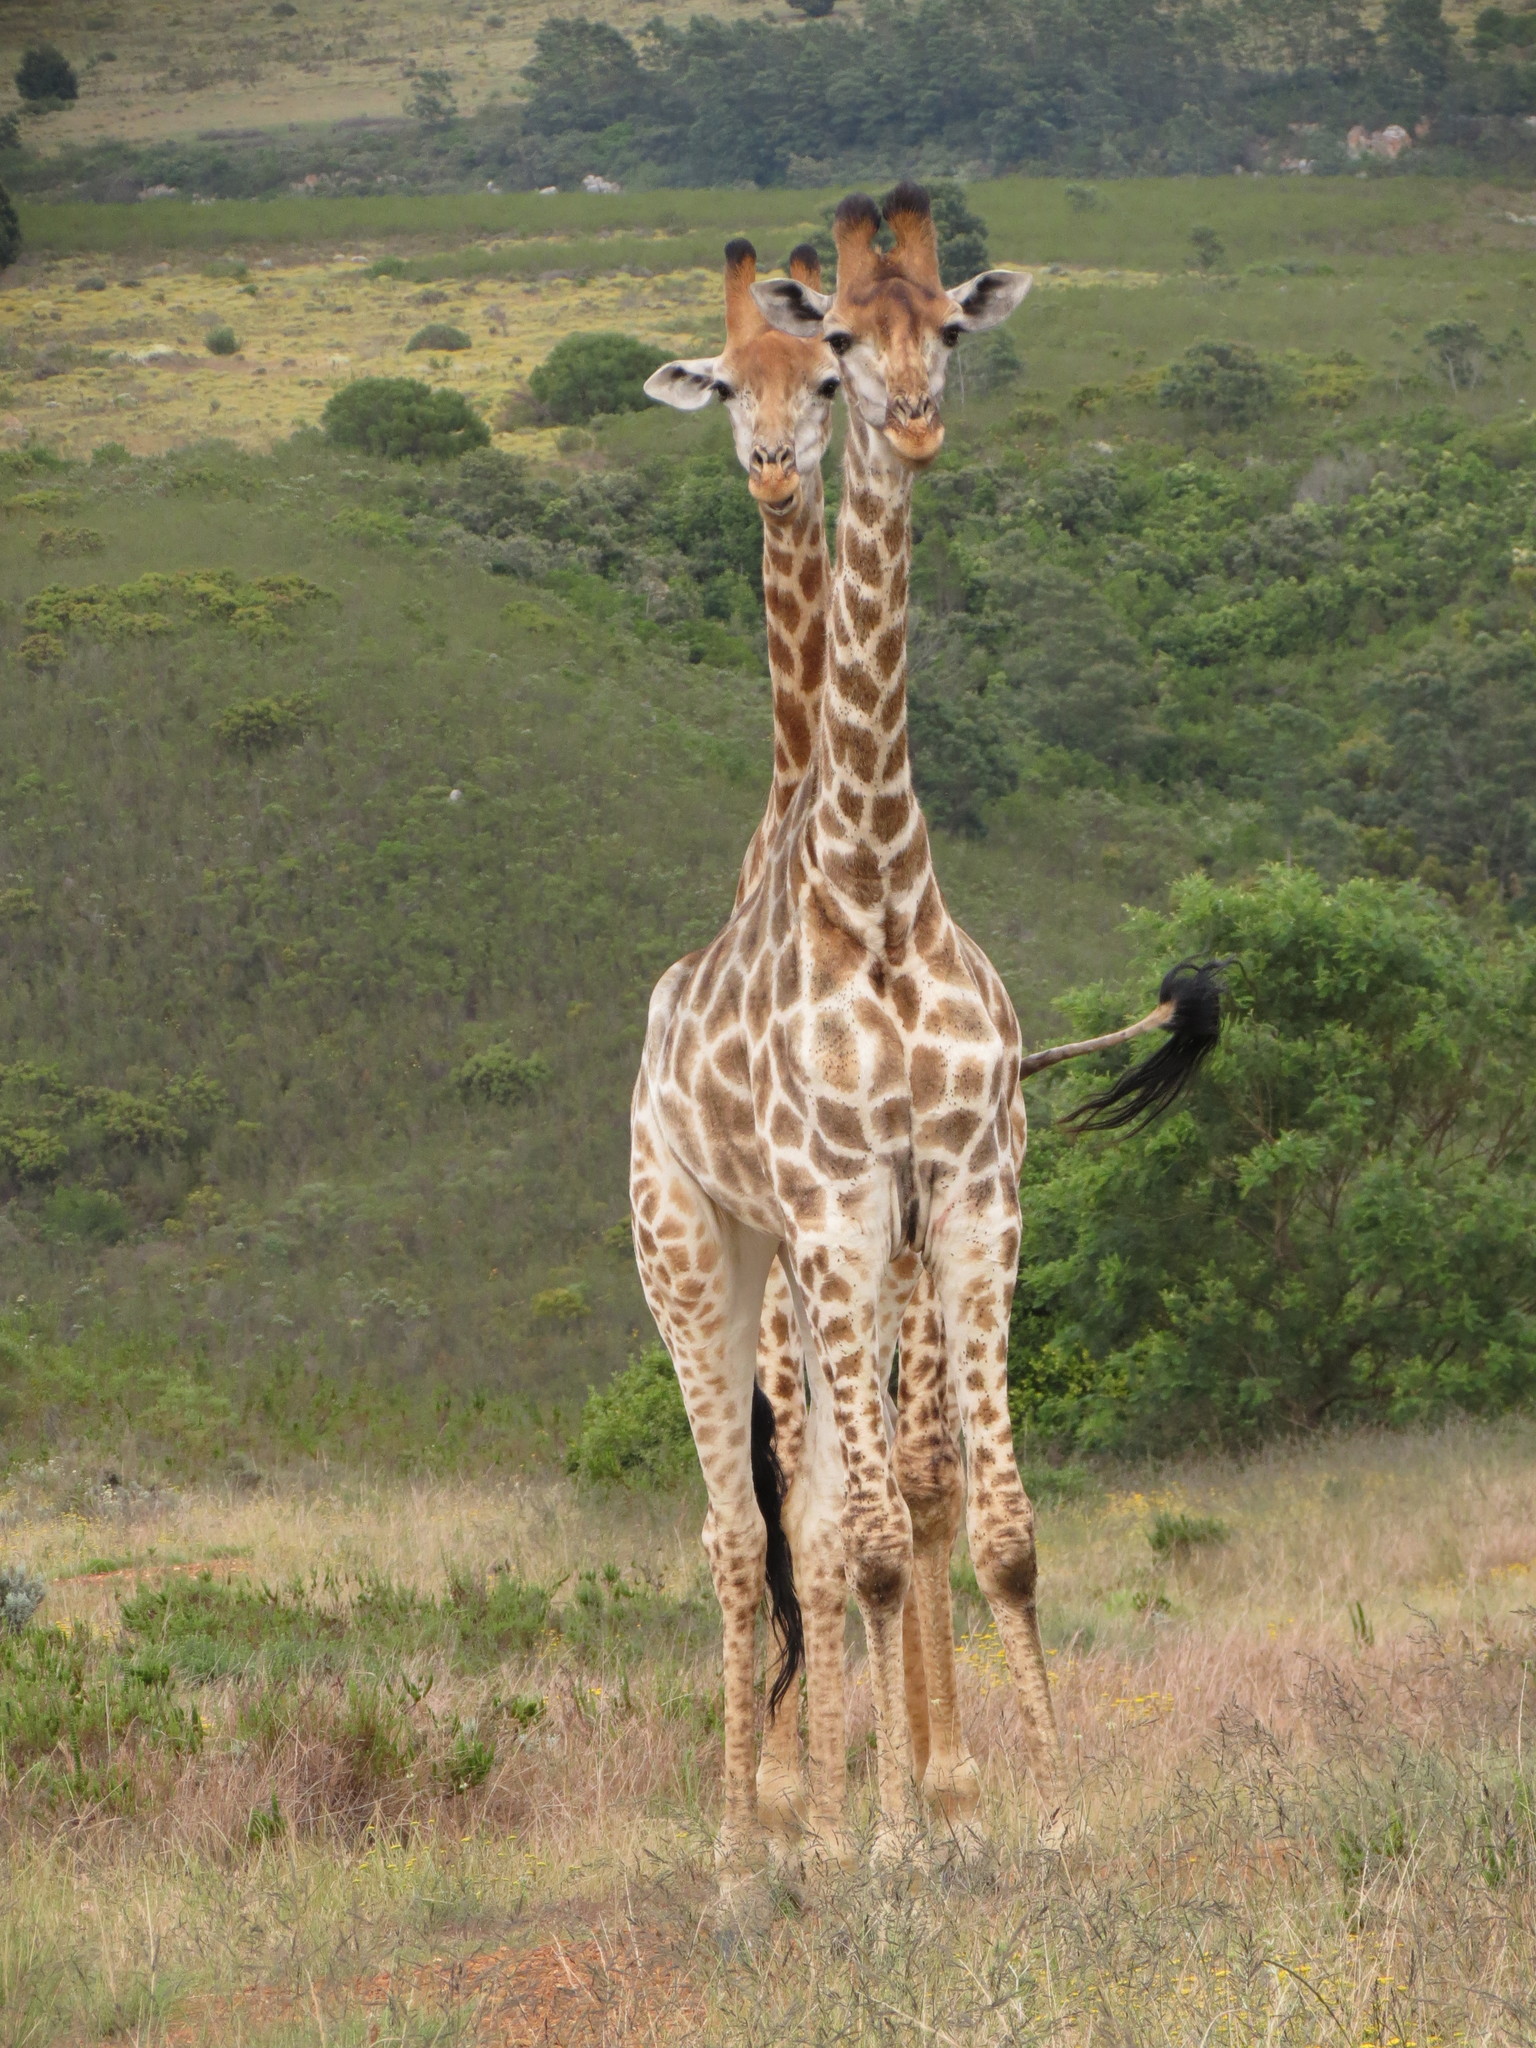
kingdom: Animalia
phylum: Chordata
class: Mammalia
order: Artiodactyla
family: Giraffidae
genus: Giraffa
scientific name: Giraffa giraffa
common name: Southern giraffe
